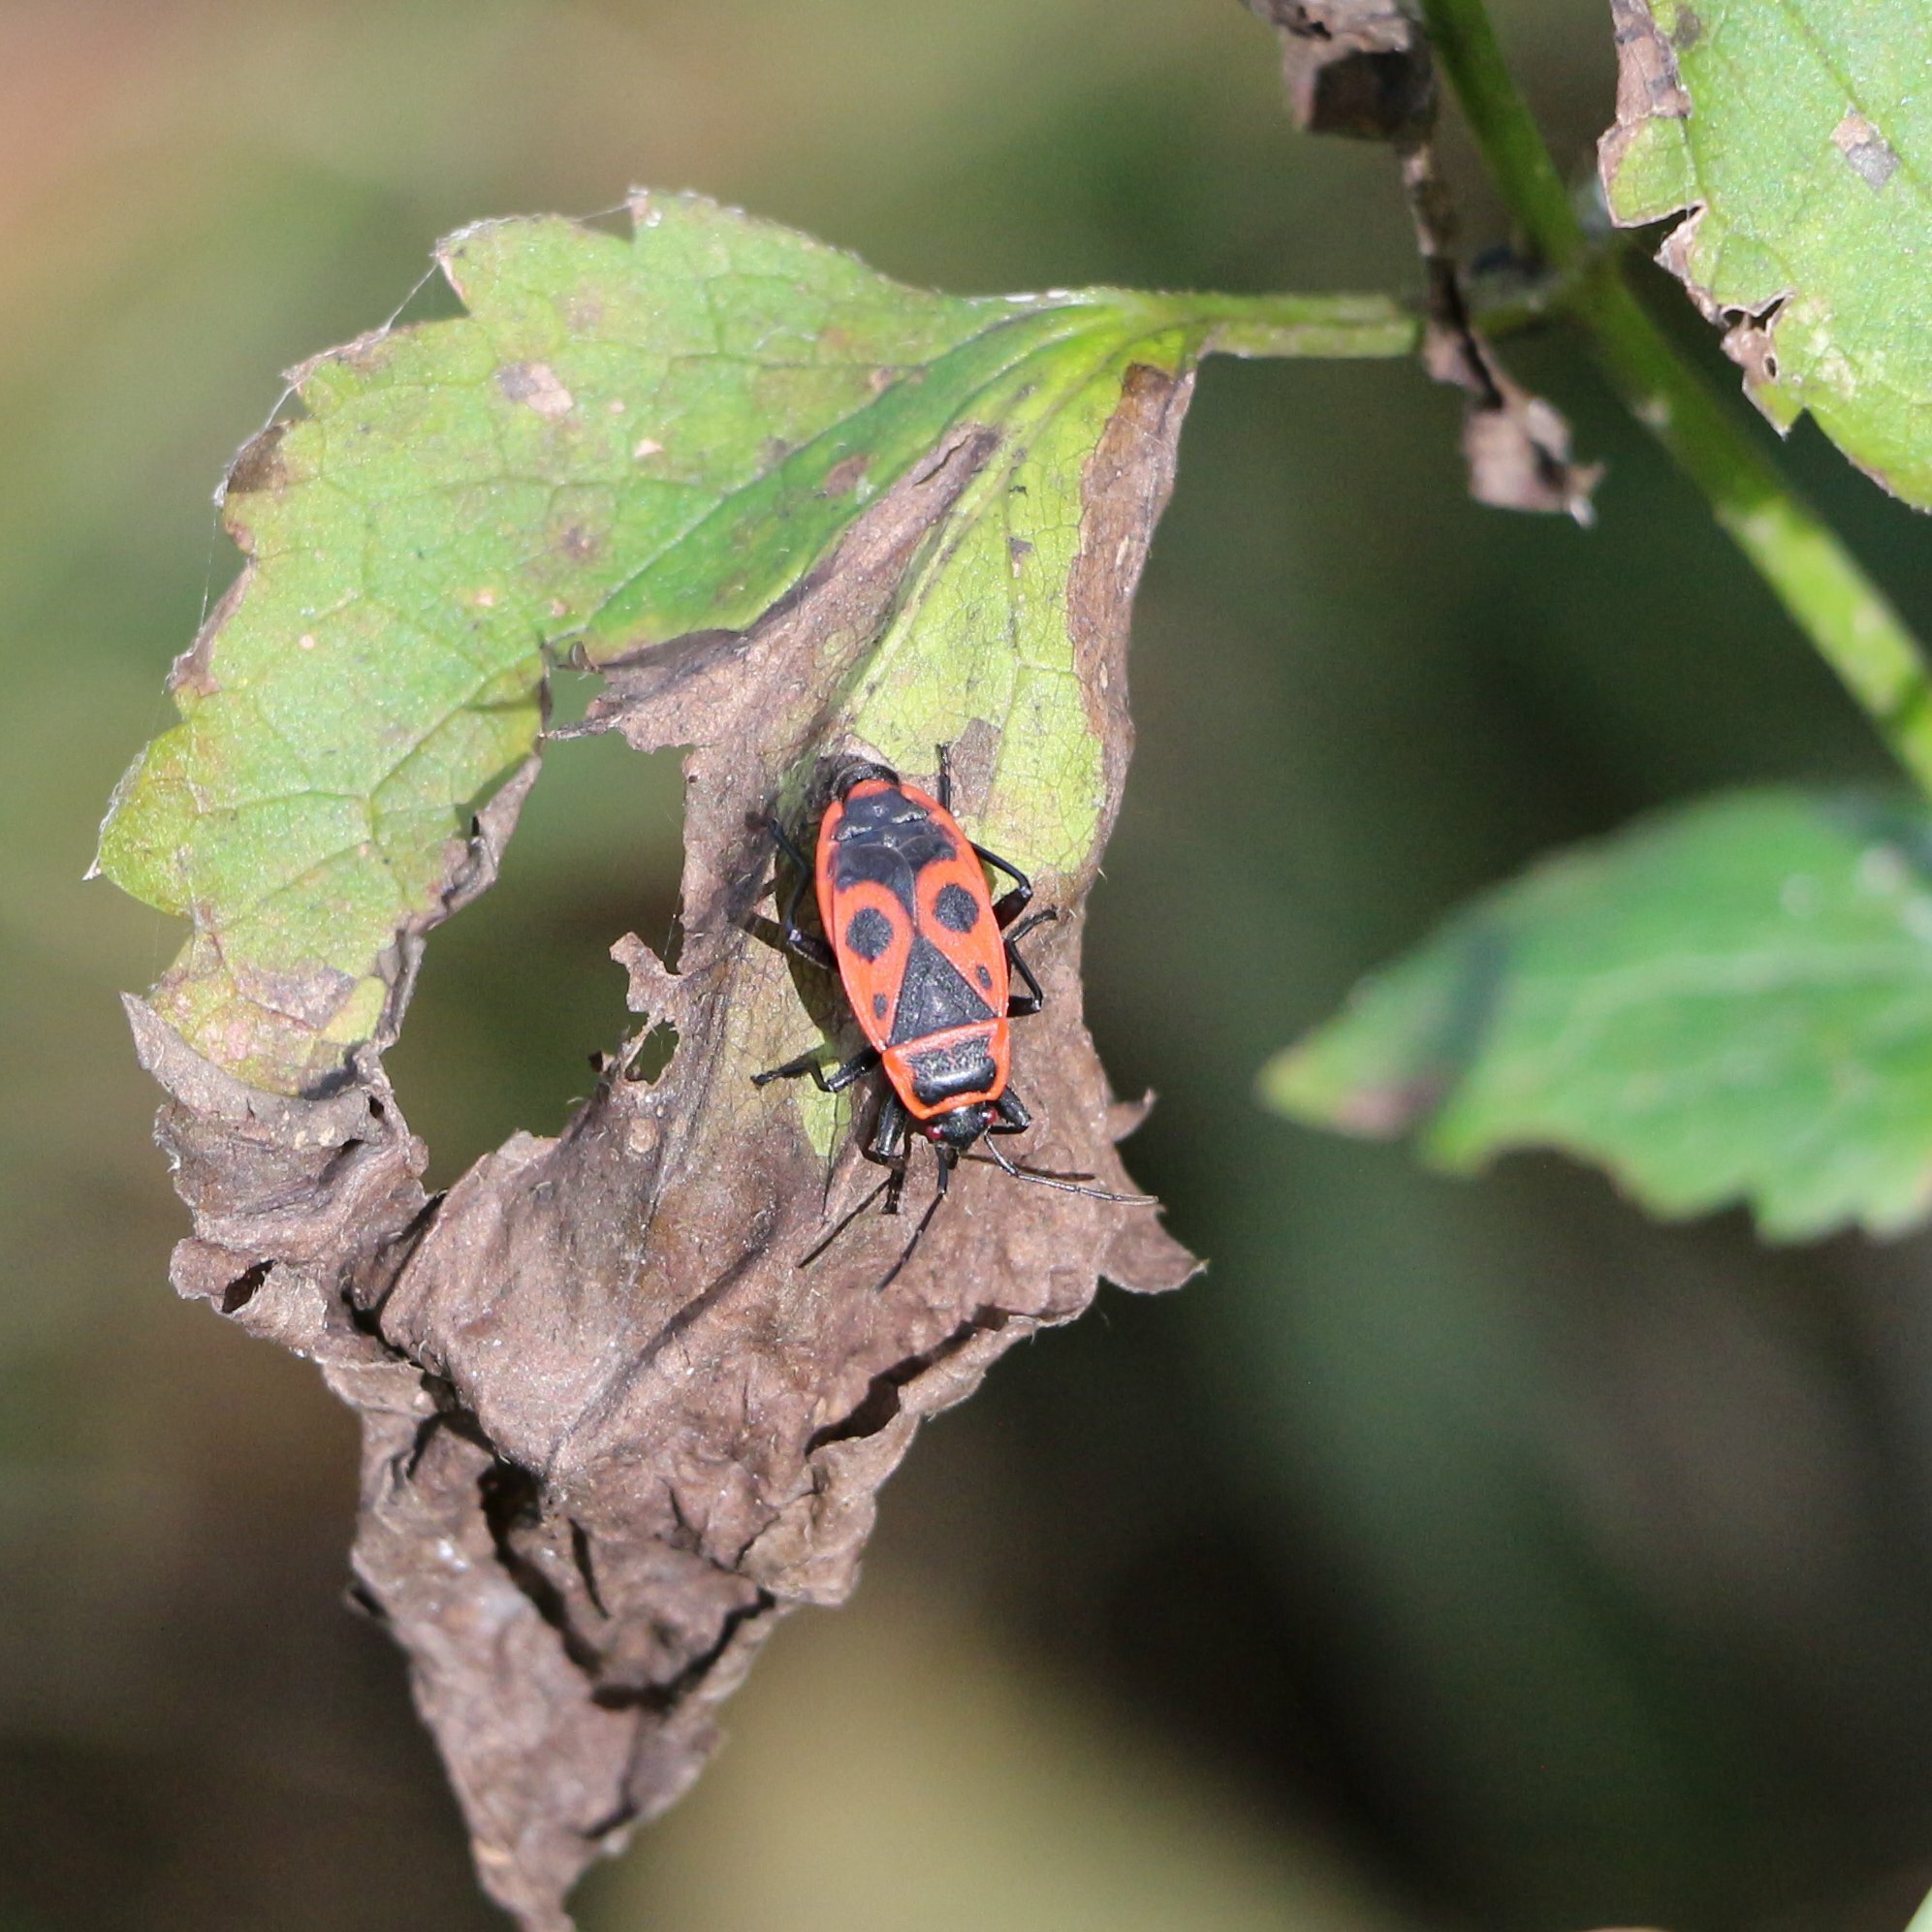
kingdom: Animalia
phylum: Arthropoda
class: Insecta
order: Hemiptera
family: Pyrrhocoridae
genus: Pyrrhocoris
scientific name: Pyrrhocoris apterus
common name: Firebug
